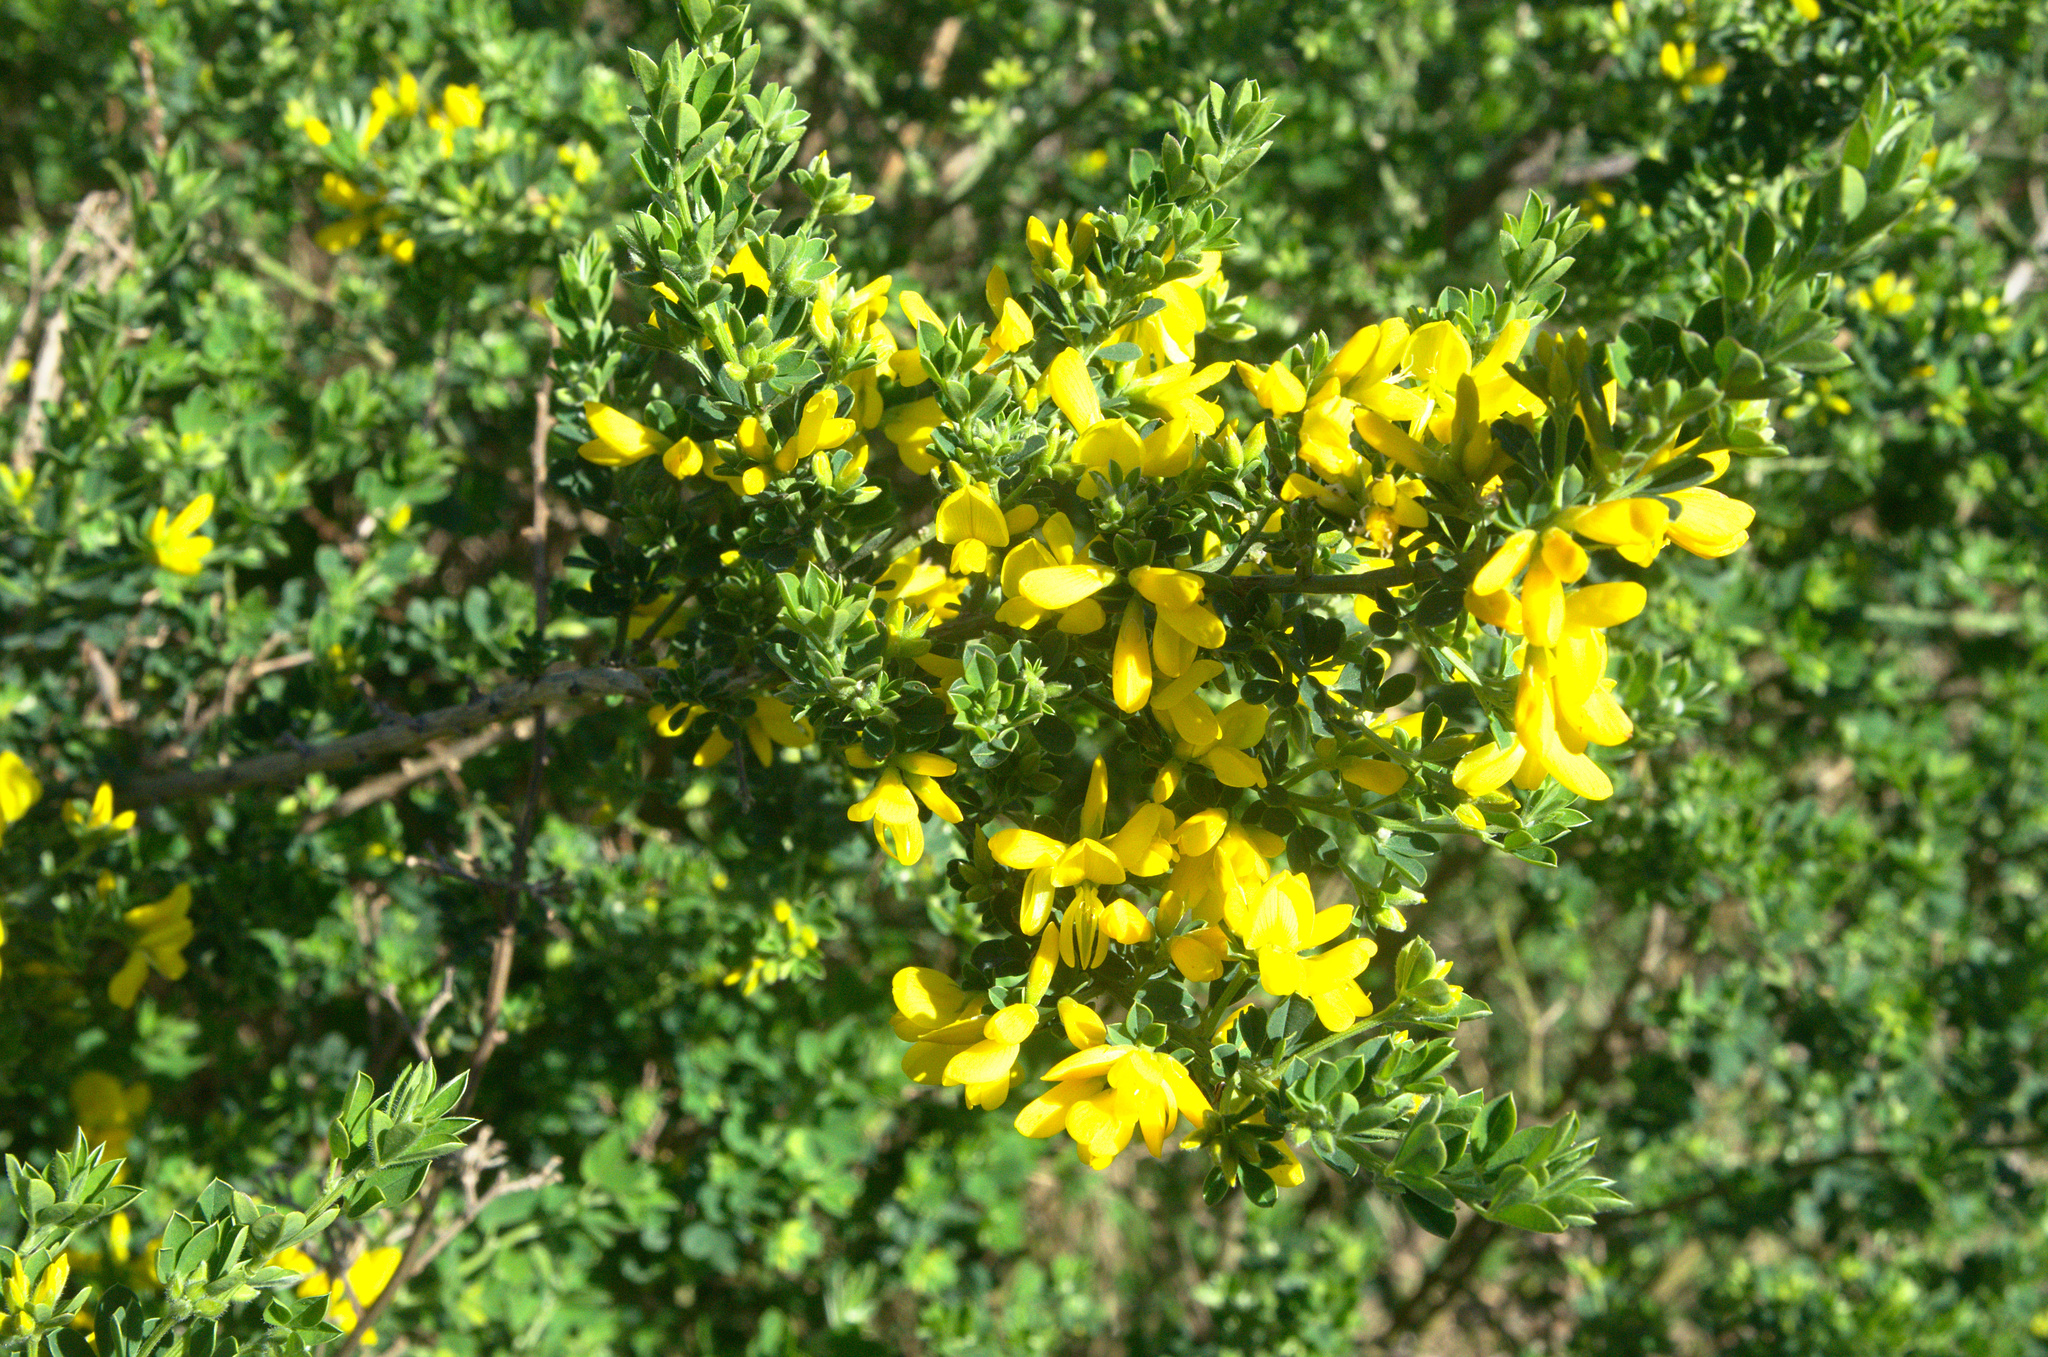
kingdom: Plantae
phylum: Tracheophyta
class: Magnoliopsida
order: Fabales
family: Fabaceae
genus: Genista
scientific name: Genista monspessulana
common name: Montpellier broom
